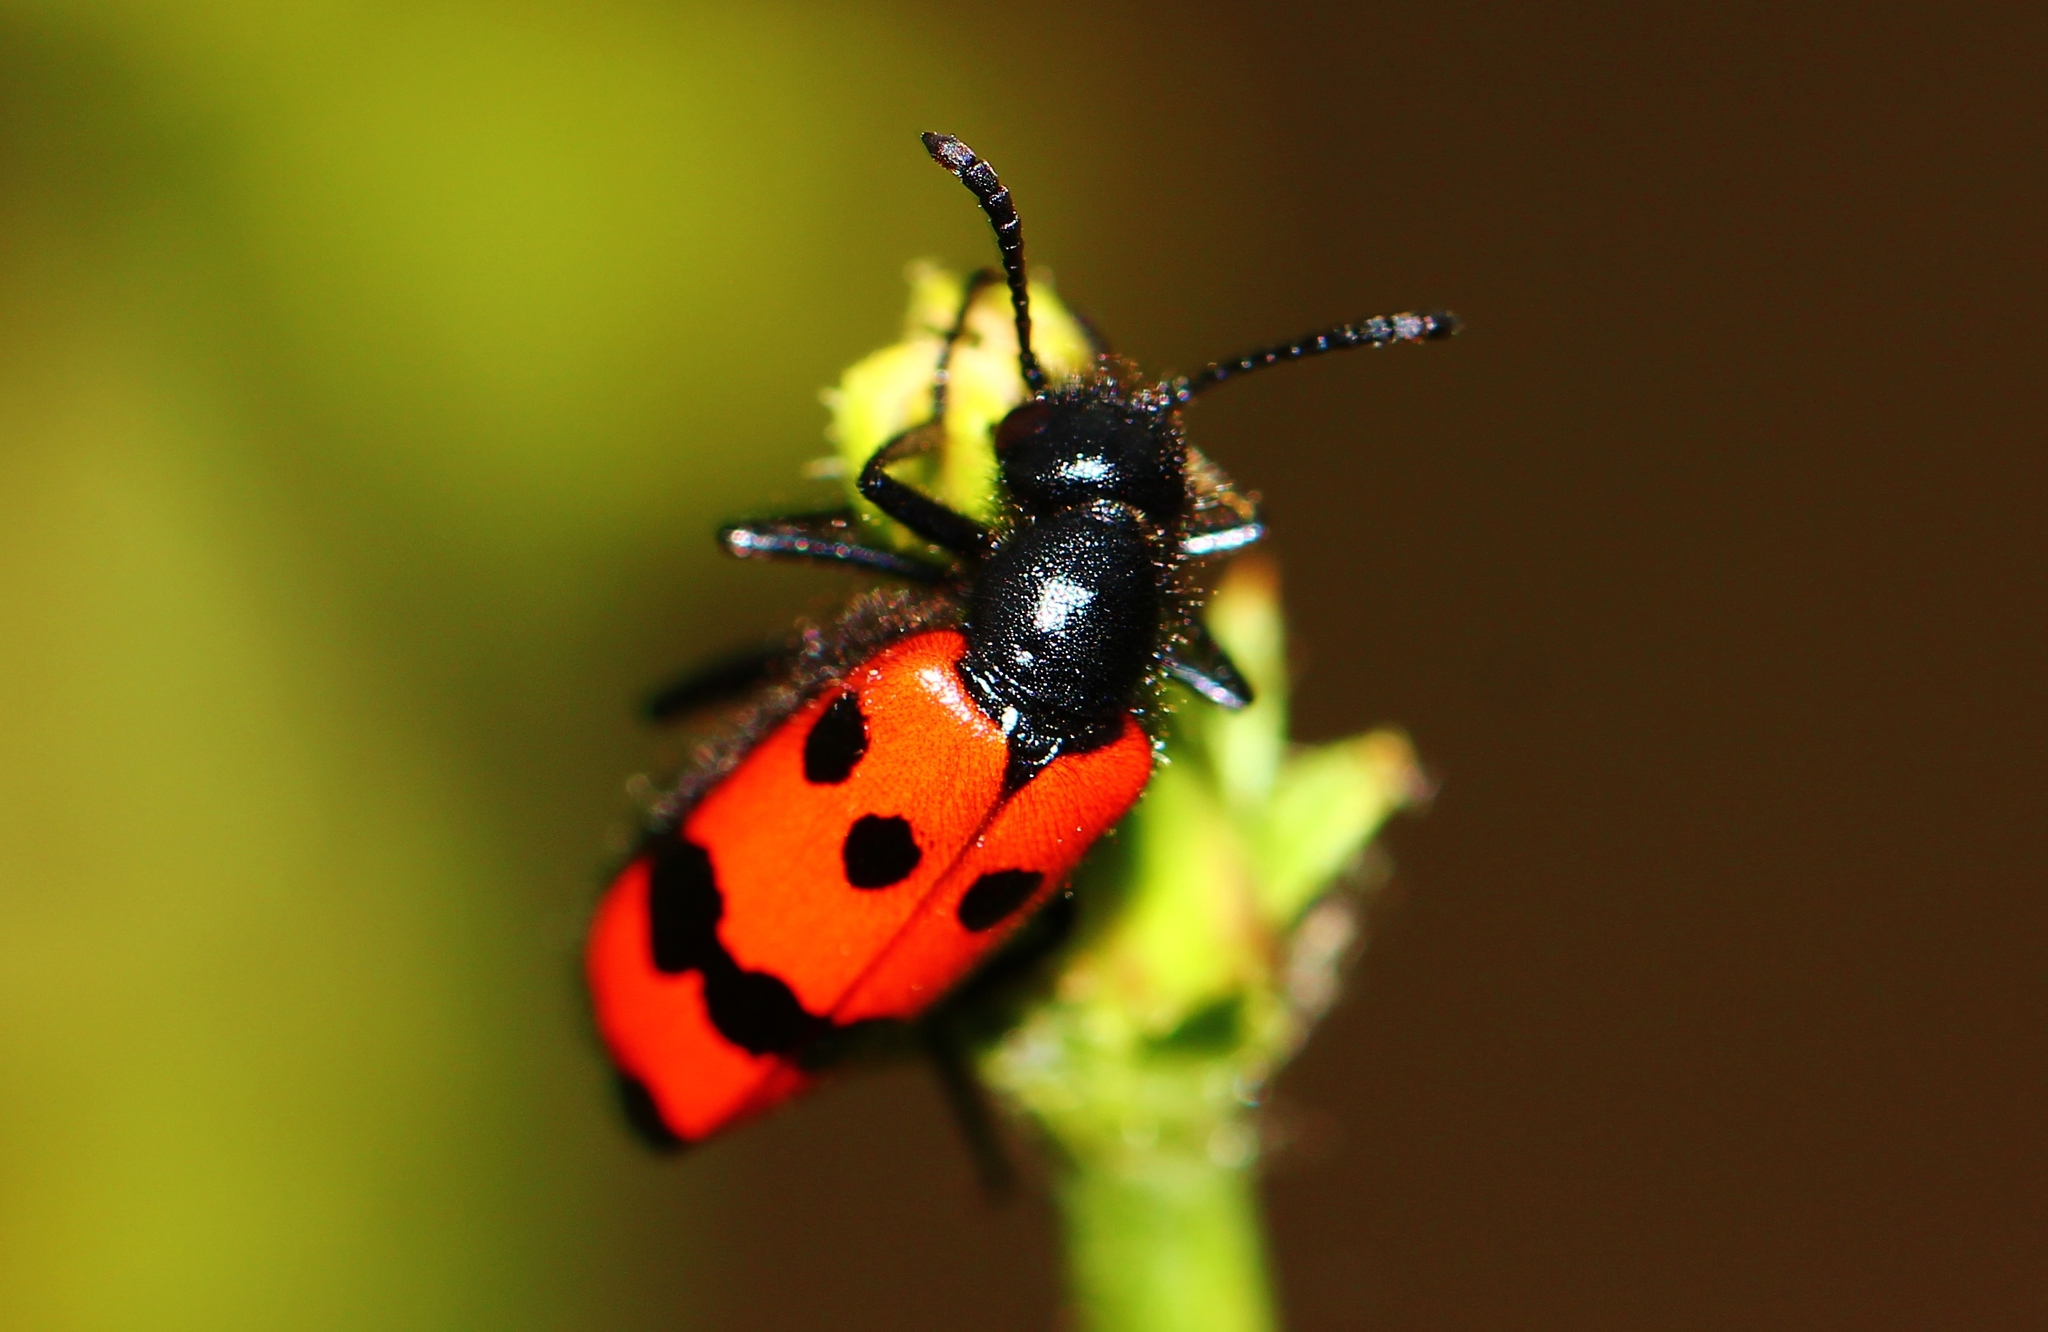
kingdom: Animalia
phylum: Arthropoda
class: Insecta
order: Coleoptera
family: Meloidae
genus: Mylabris
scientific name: Mylabris quadripunctata
